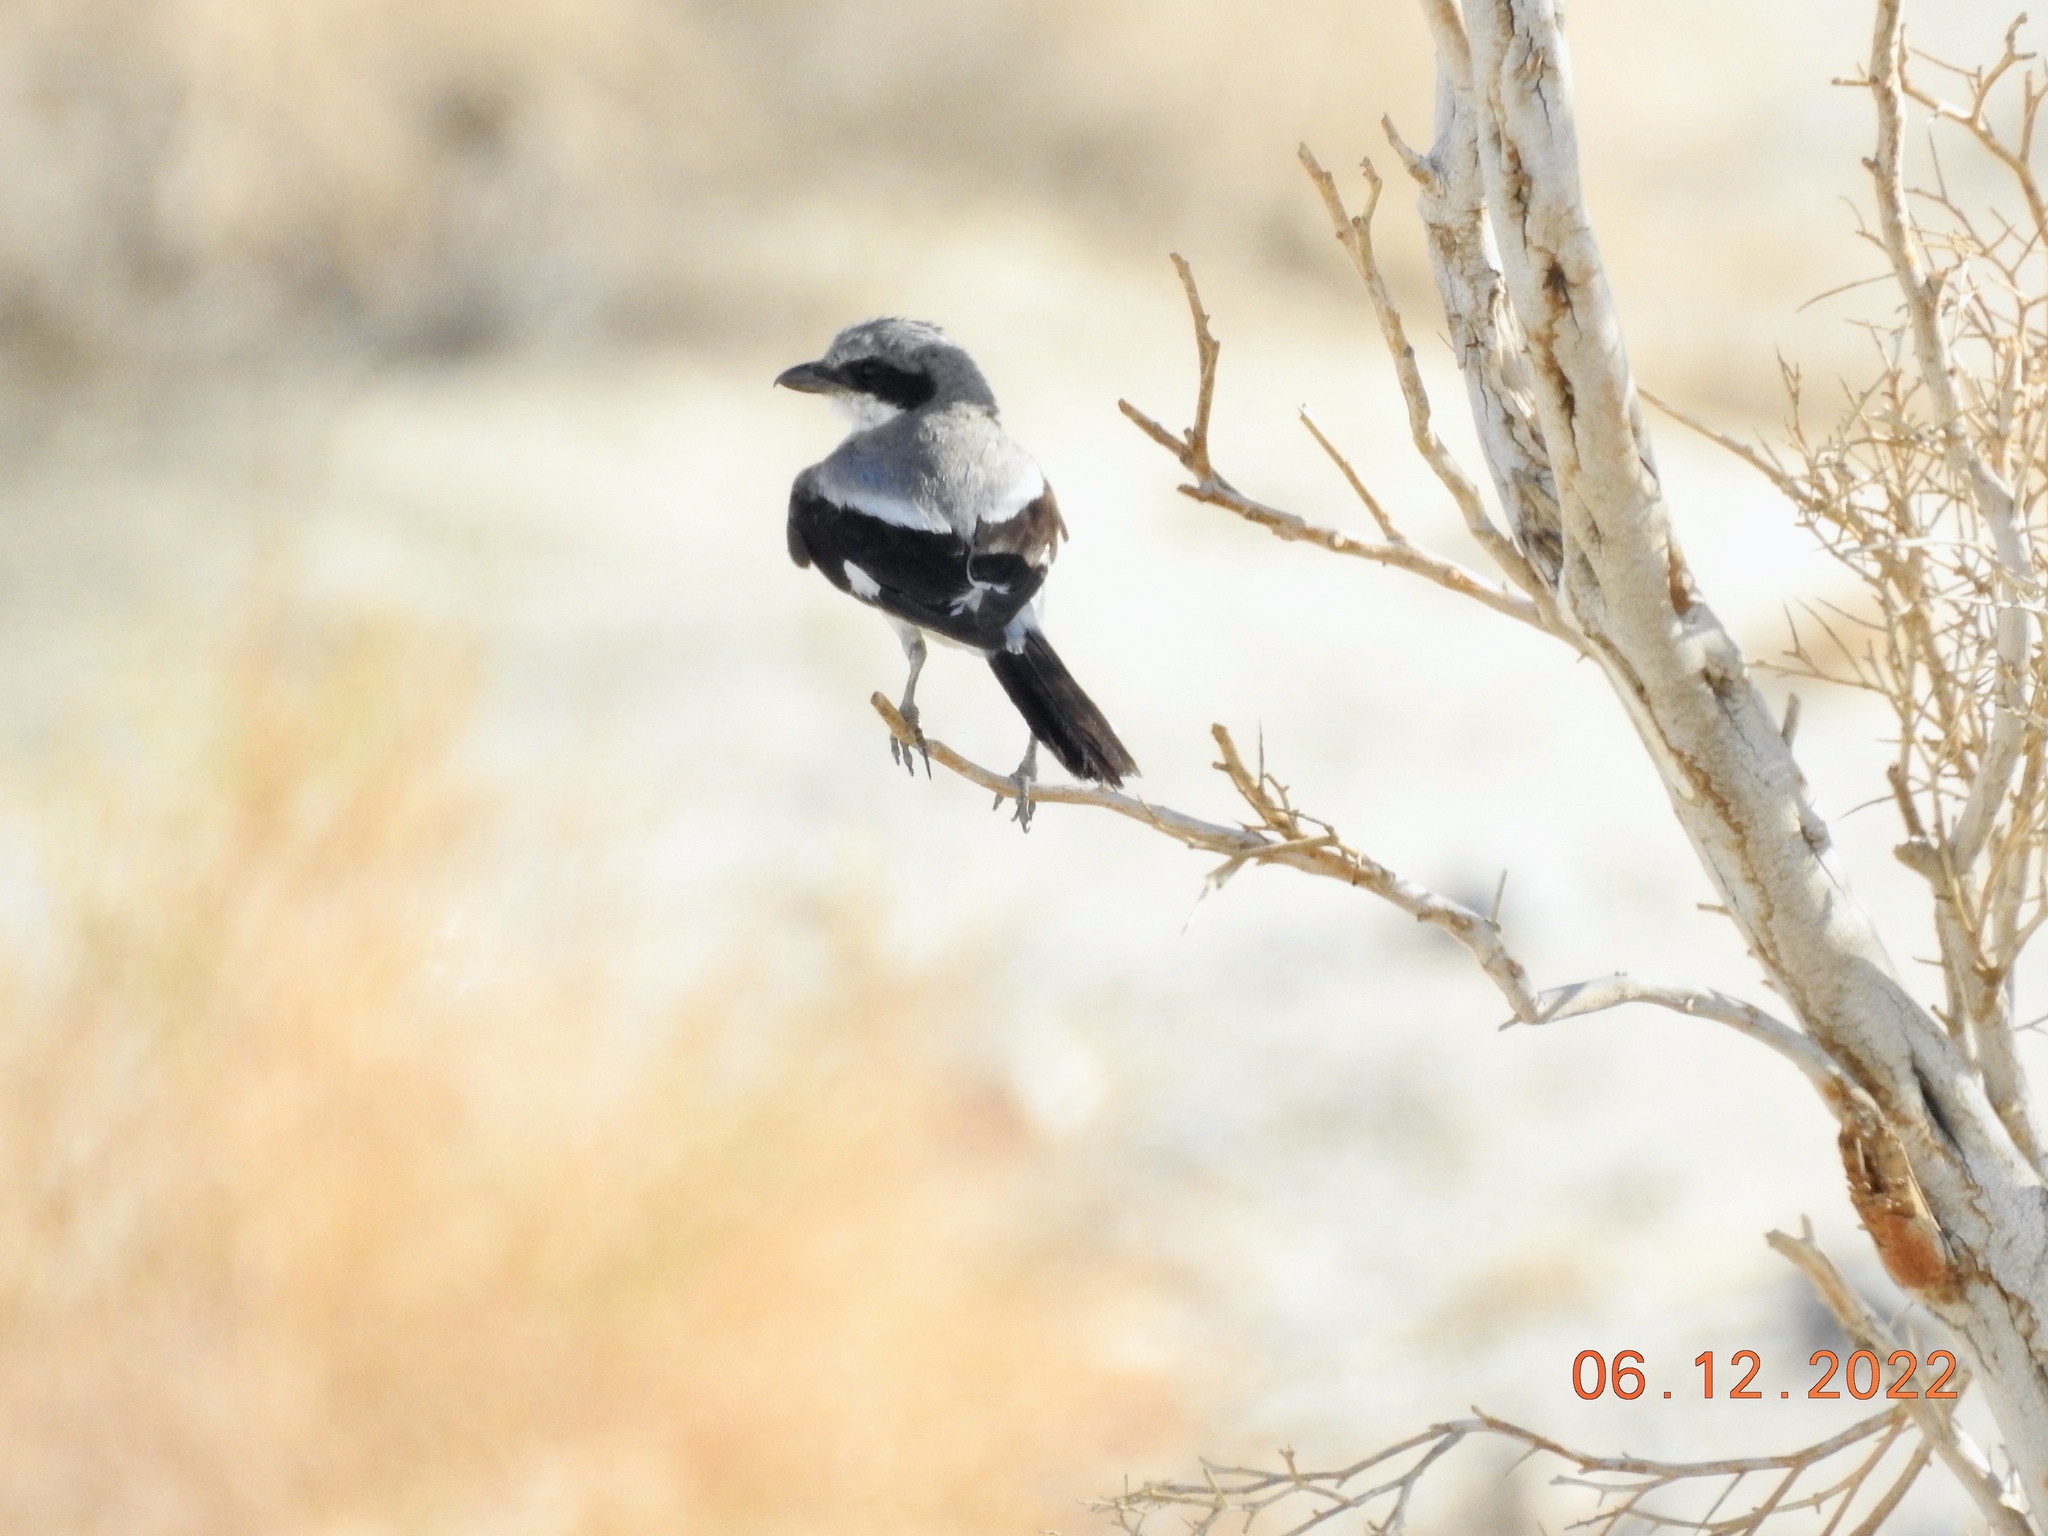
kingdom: Animalia
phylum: Chordata
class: Aves
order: Passeriformes
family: Laniidae
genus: Lanius
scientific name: Lanius ludovicianus
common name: Loggerhead shrike
